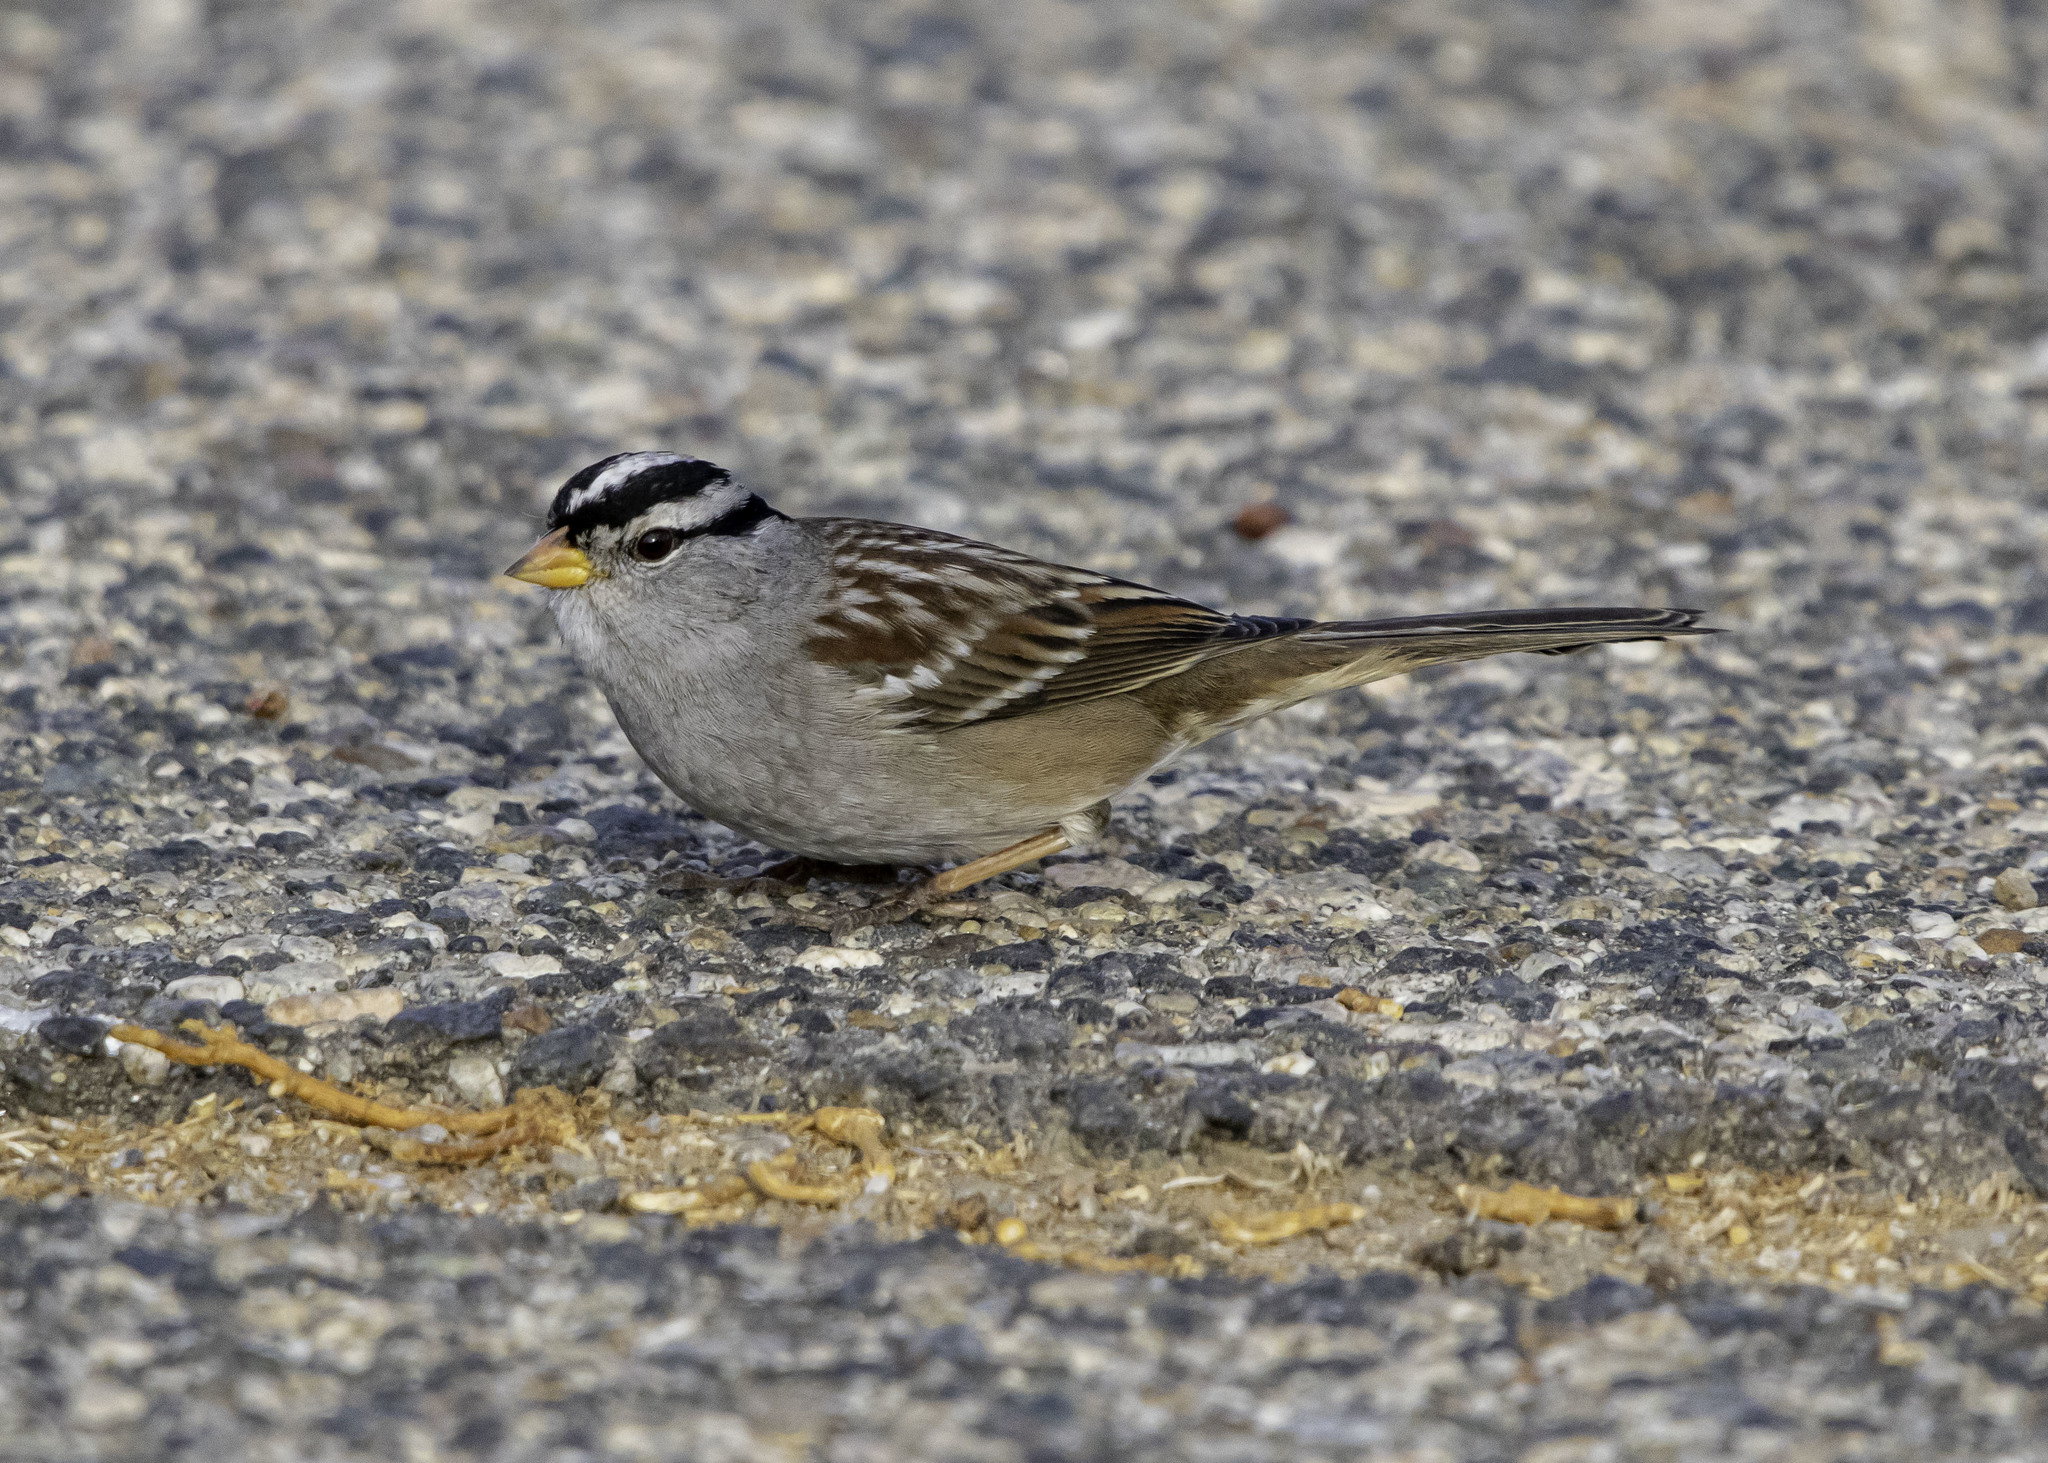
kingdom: Animalia
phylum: Chordata
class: Aves
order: Passeriformes
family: Passerellidae
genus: Zonotrichia
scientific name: Zonotrichia leucophrys
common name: White-crowned sparrow
